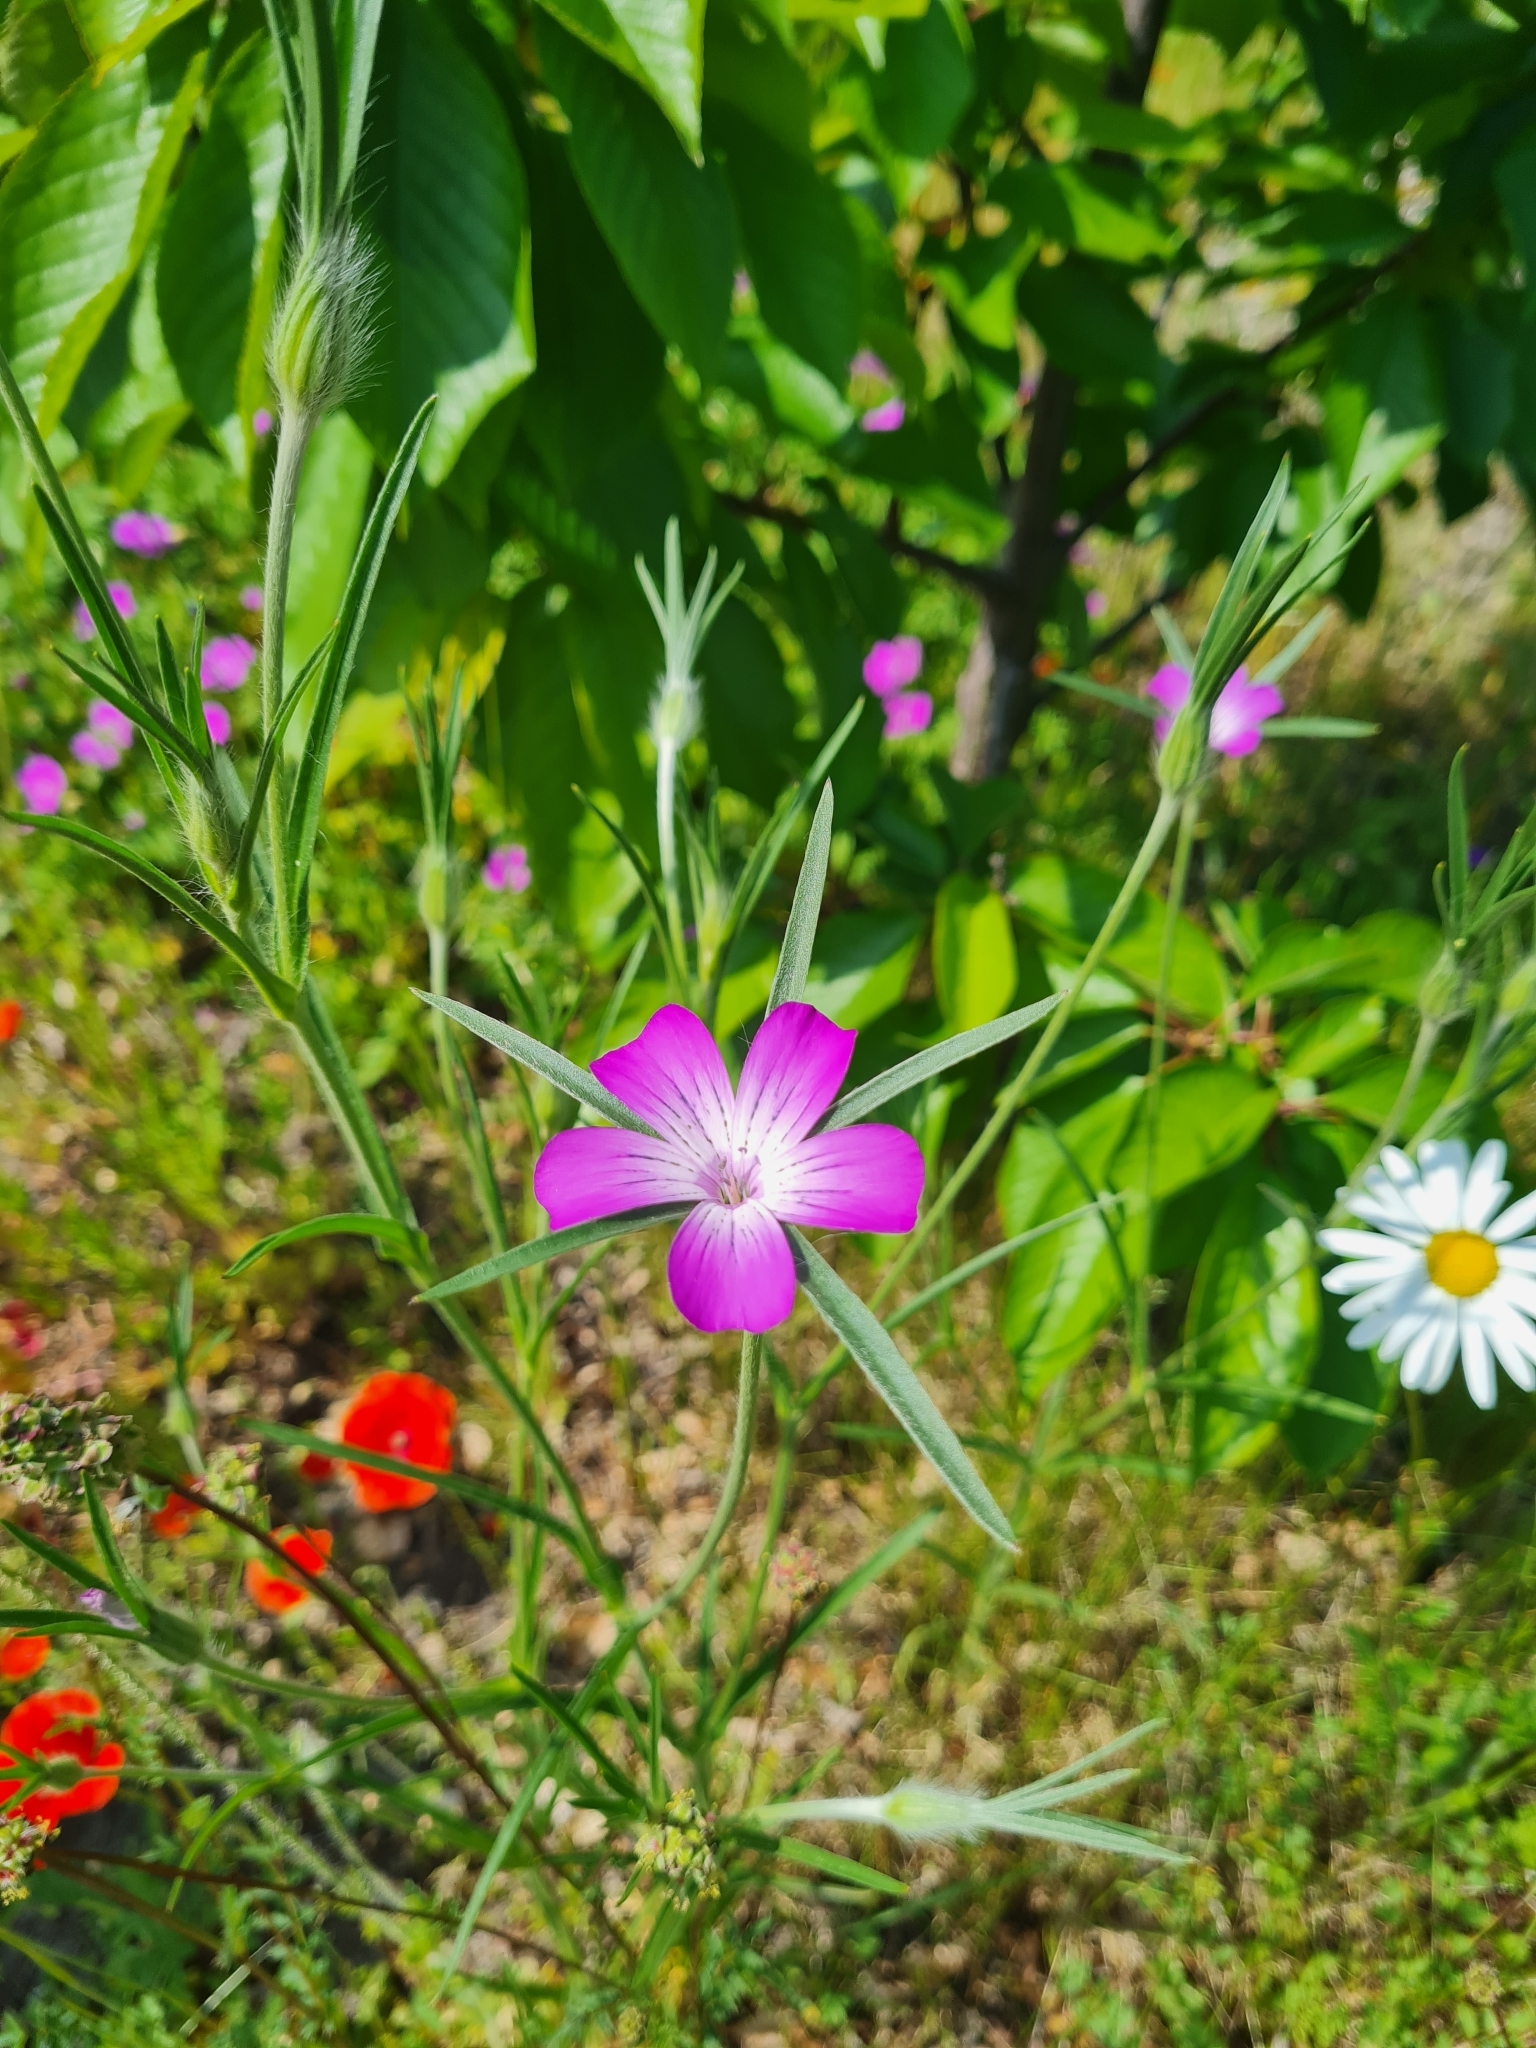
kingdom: Plantae
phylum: Tracheophyta
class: Magnoliopsida
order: Caryophyllales
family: Caryophyllaceae
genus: Agrostemma
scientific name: Agrostemma githago
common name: Common corncockle
